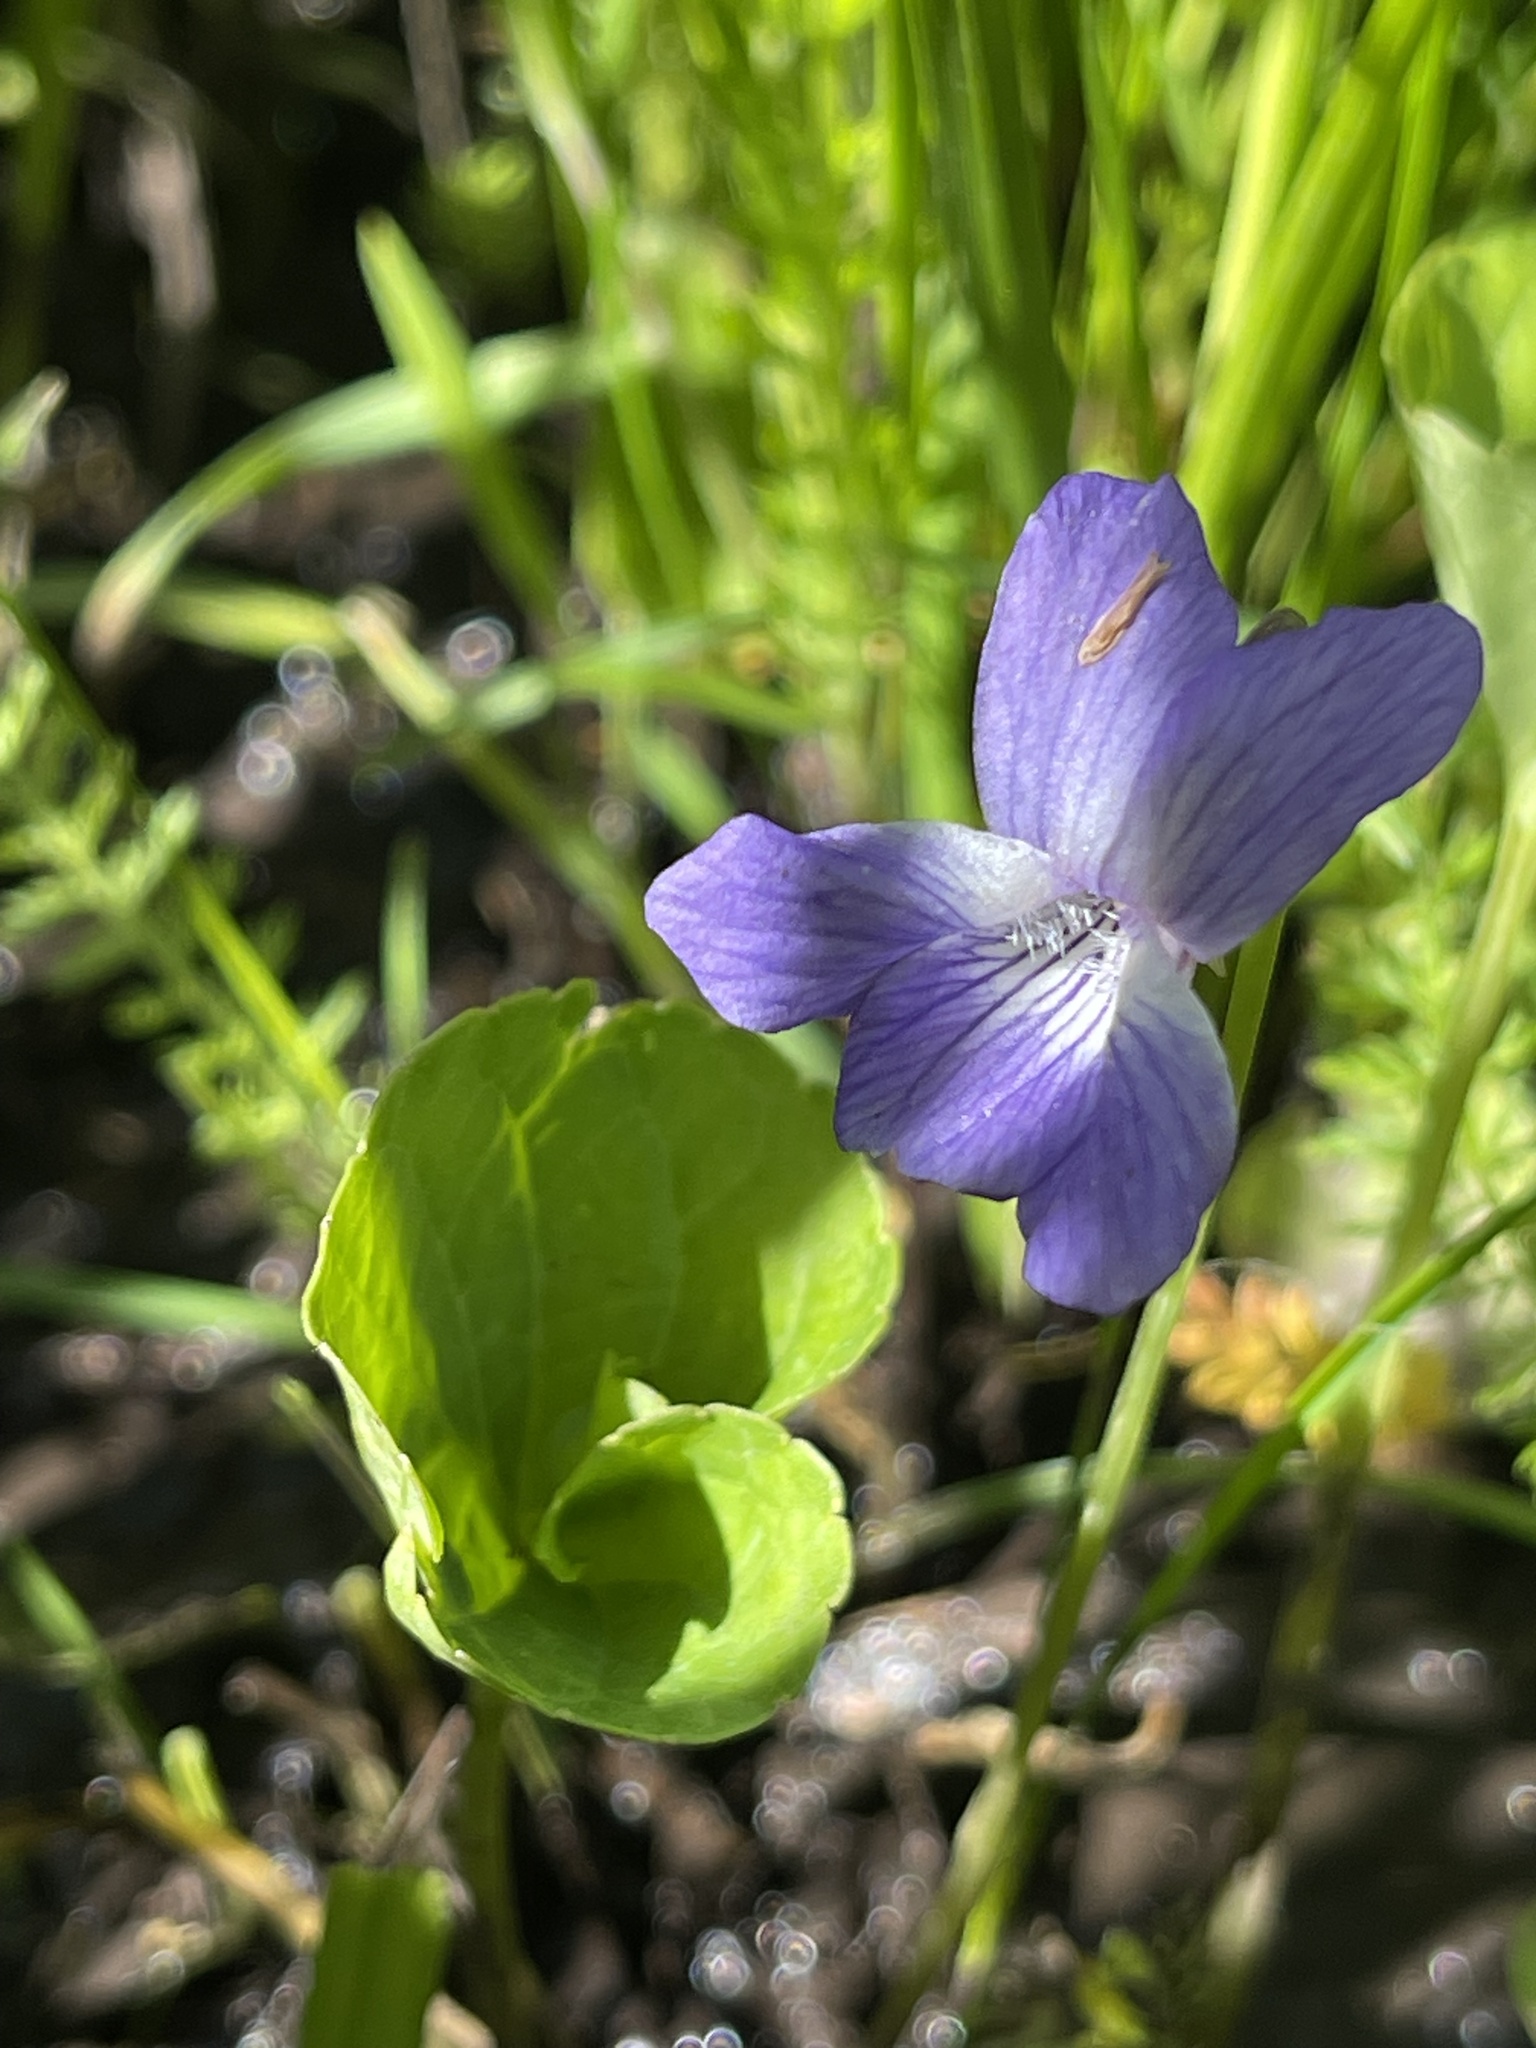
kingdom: Plantae
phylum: Tracheophyta
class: Magnoliopsida
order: Malpighiales
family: Violaceae
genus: Viola
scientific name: Viola nephrophylla
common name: Blue meadow violet
